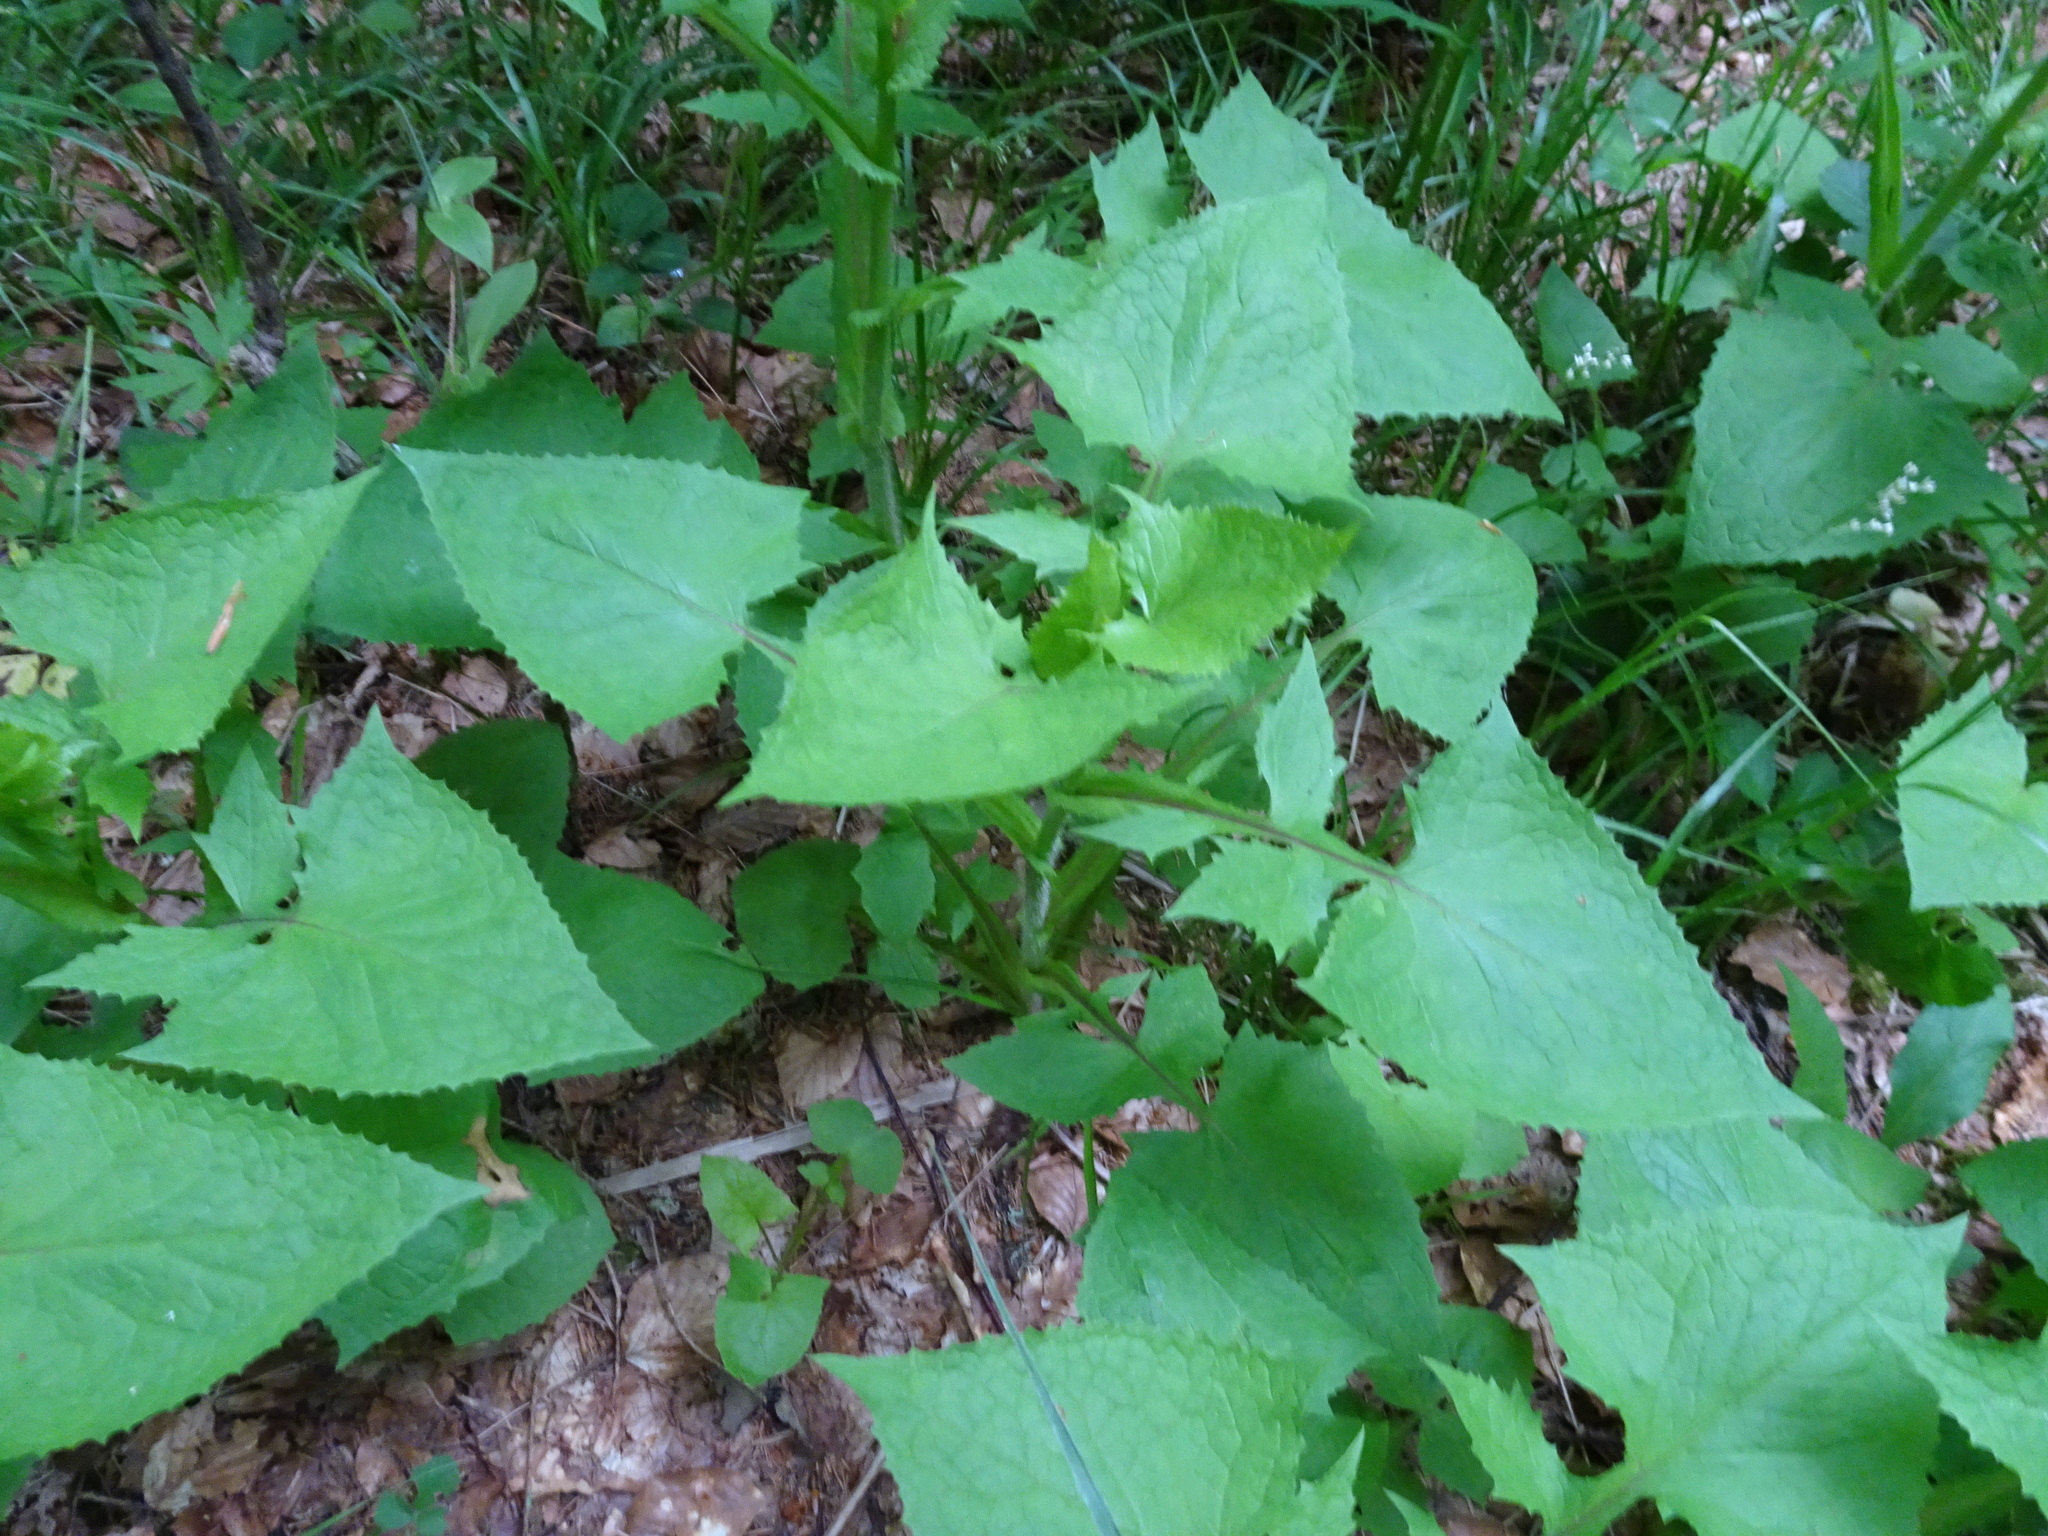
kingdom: Plantae
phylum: Tracheophyta
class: Magnoliopsida
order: Asterales
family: Asteraceae
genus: Cicerbita
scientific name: Cicerbita alpina
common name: Alpine blue-sow-thistle
